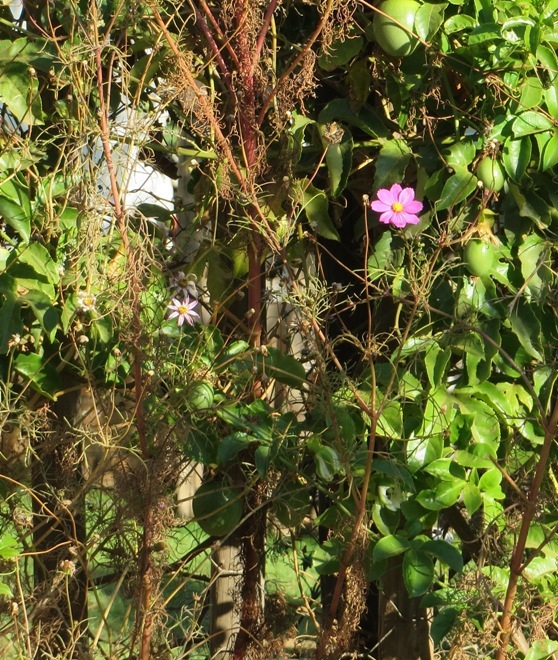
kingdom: Plantae
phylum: Tracheophyta
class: Magnoliopsida
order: Asterales
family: Asteraceae
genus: Cosmos
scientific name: Cosmos bipinnatus
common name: Garden cosmos
